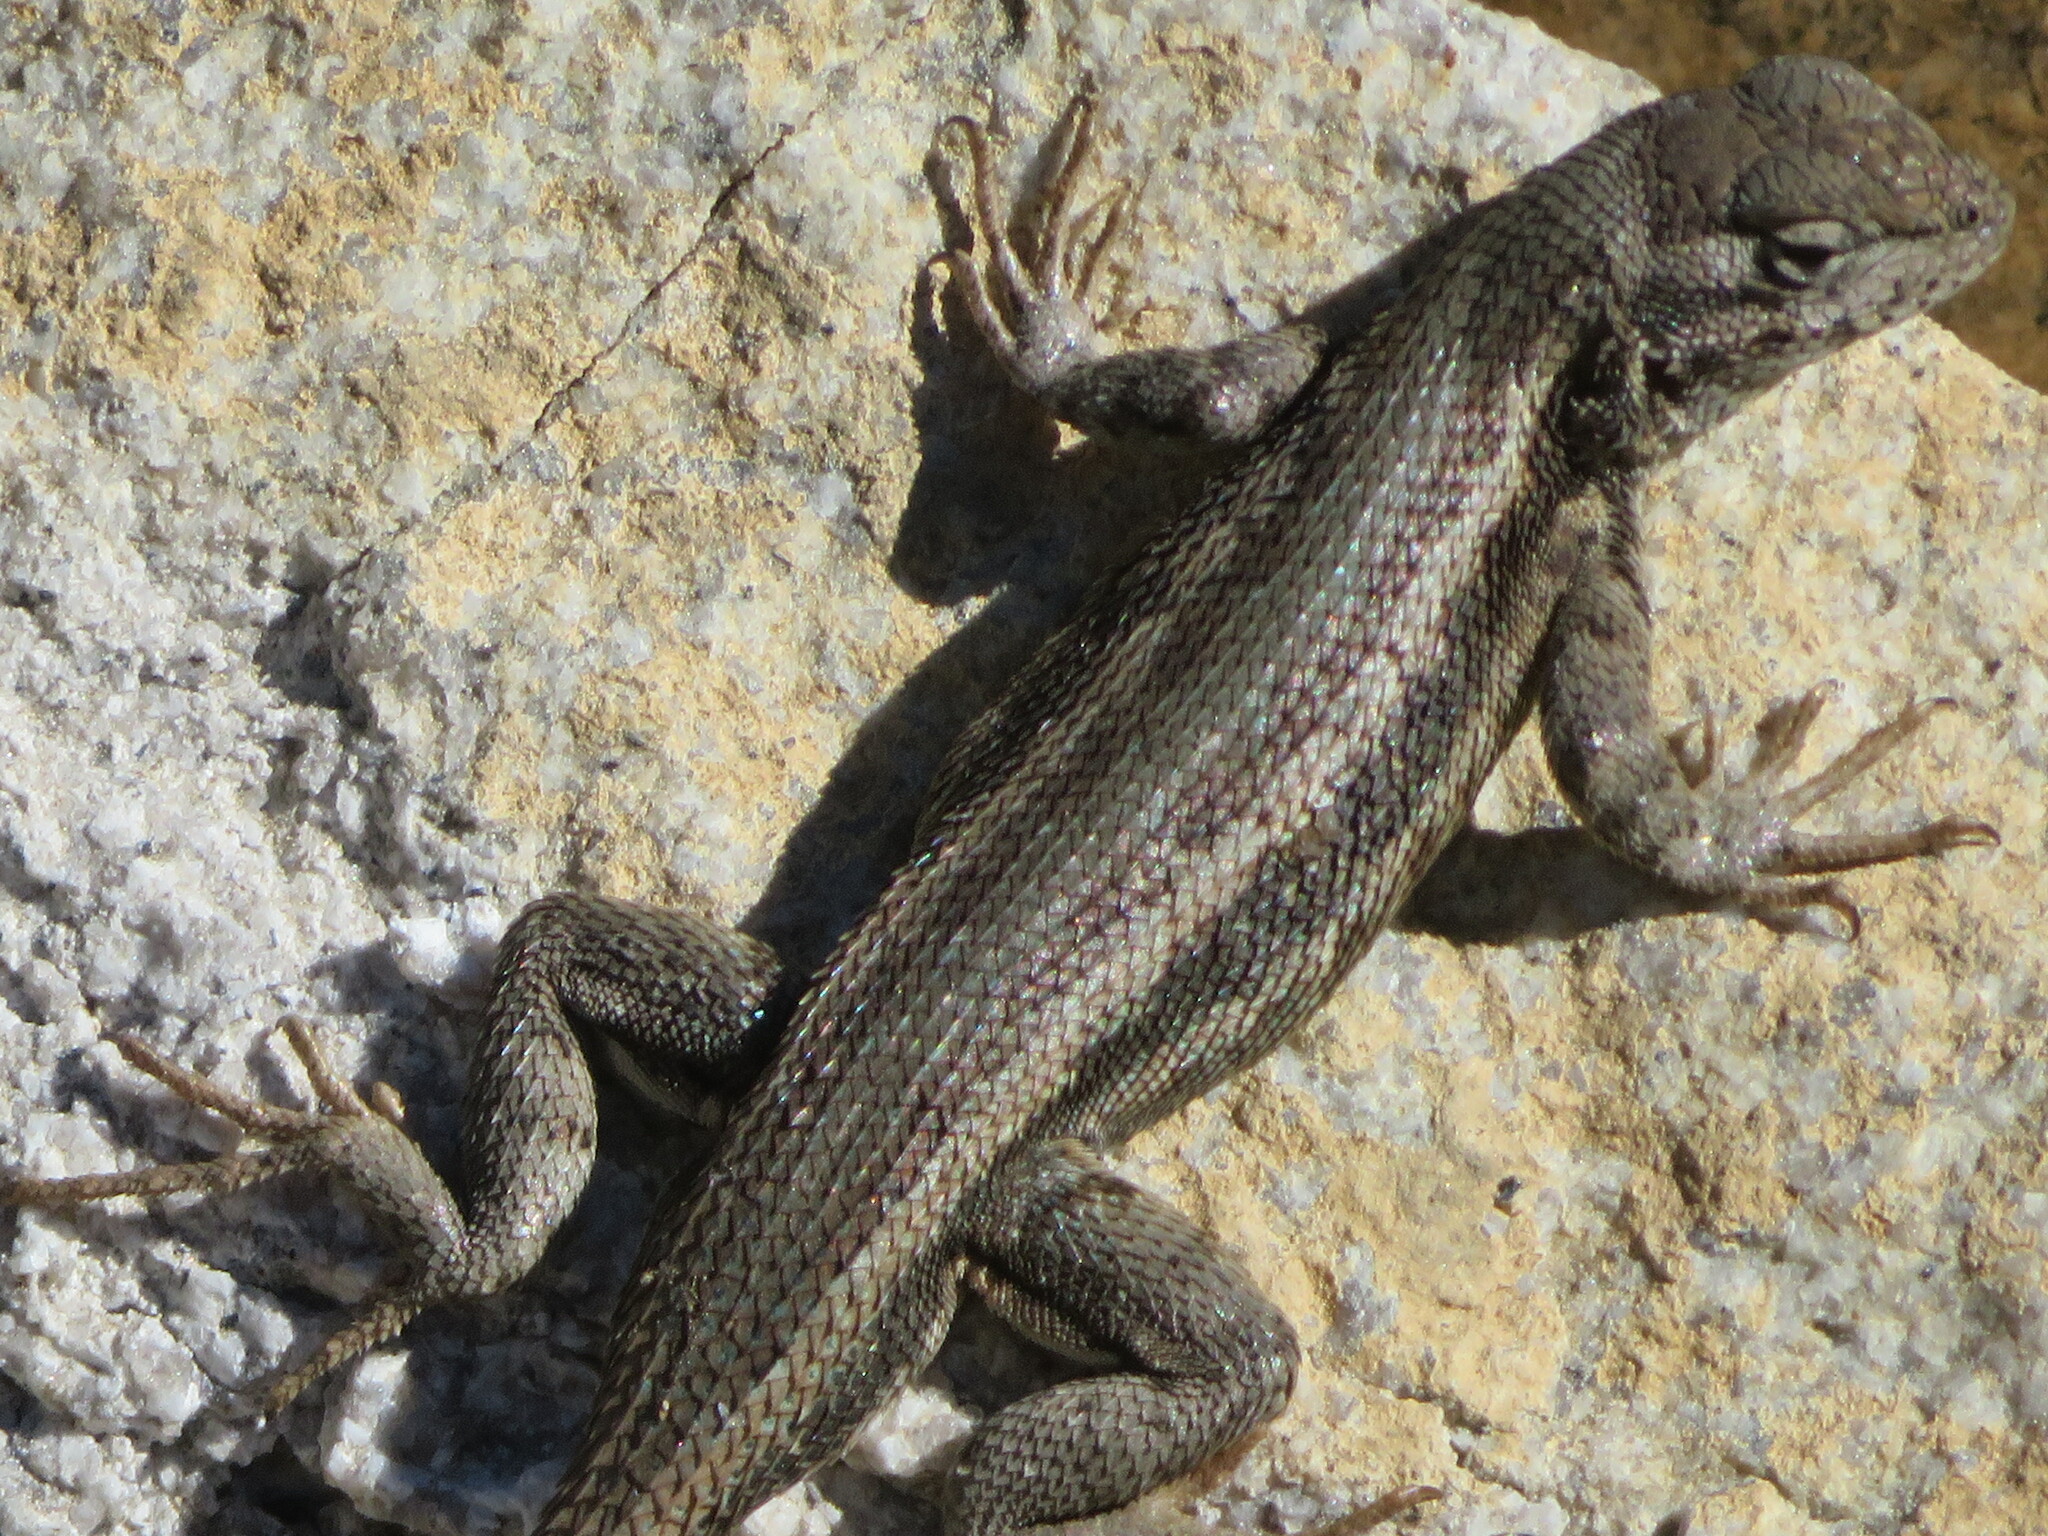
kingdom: Animalia
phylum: Chordata
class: Squamata
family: Phrynosomatidae
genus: Sceloporus
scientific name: Sceloporus graciosus
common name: Sagebrush lizard
